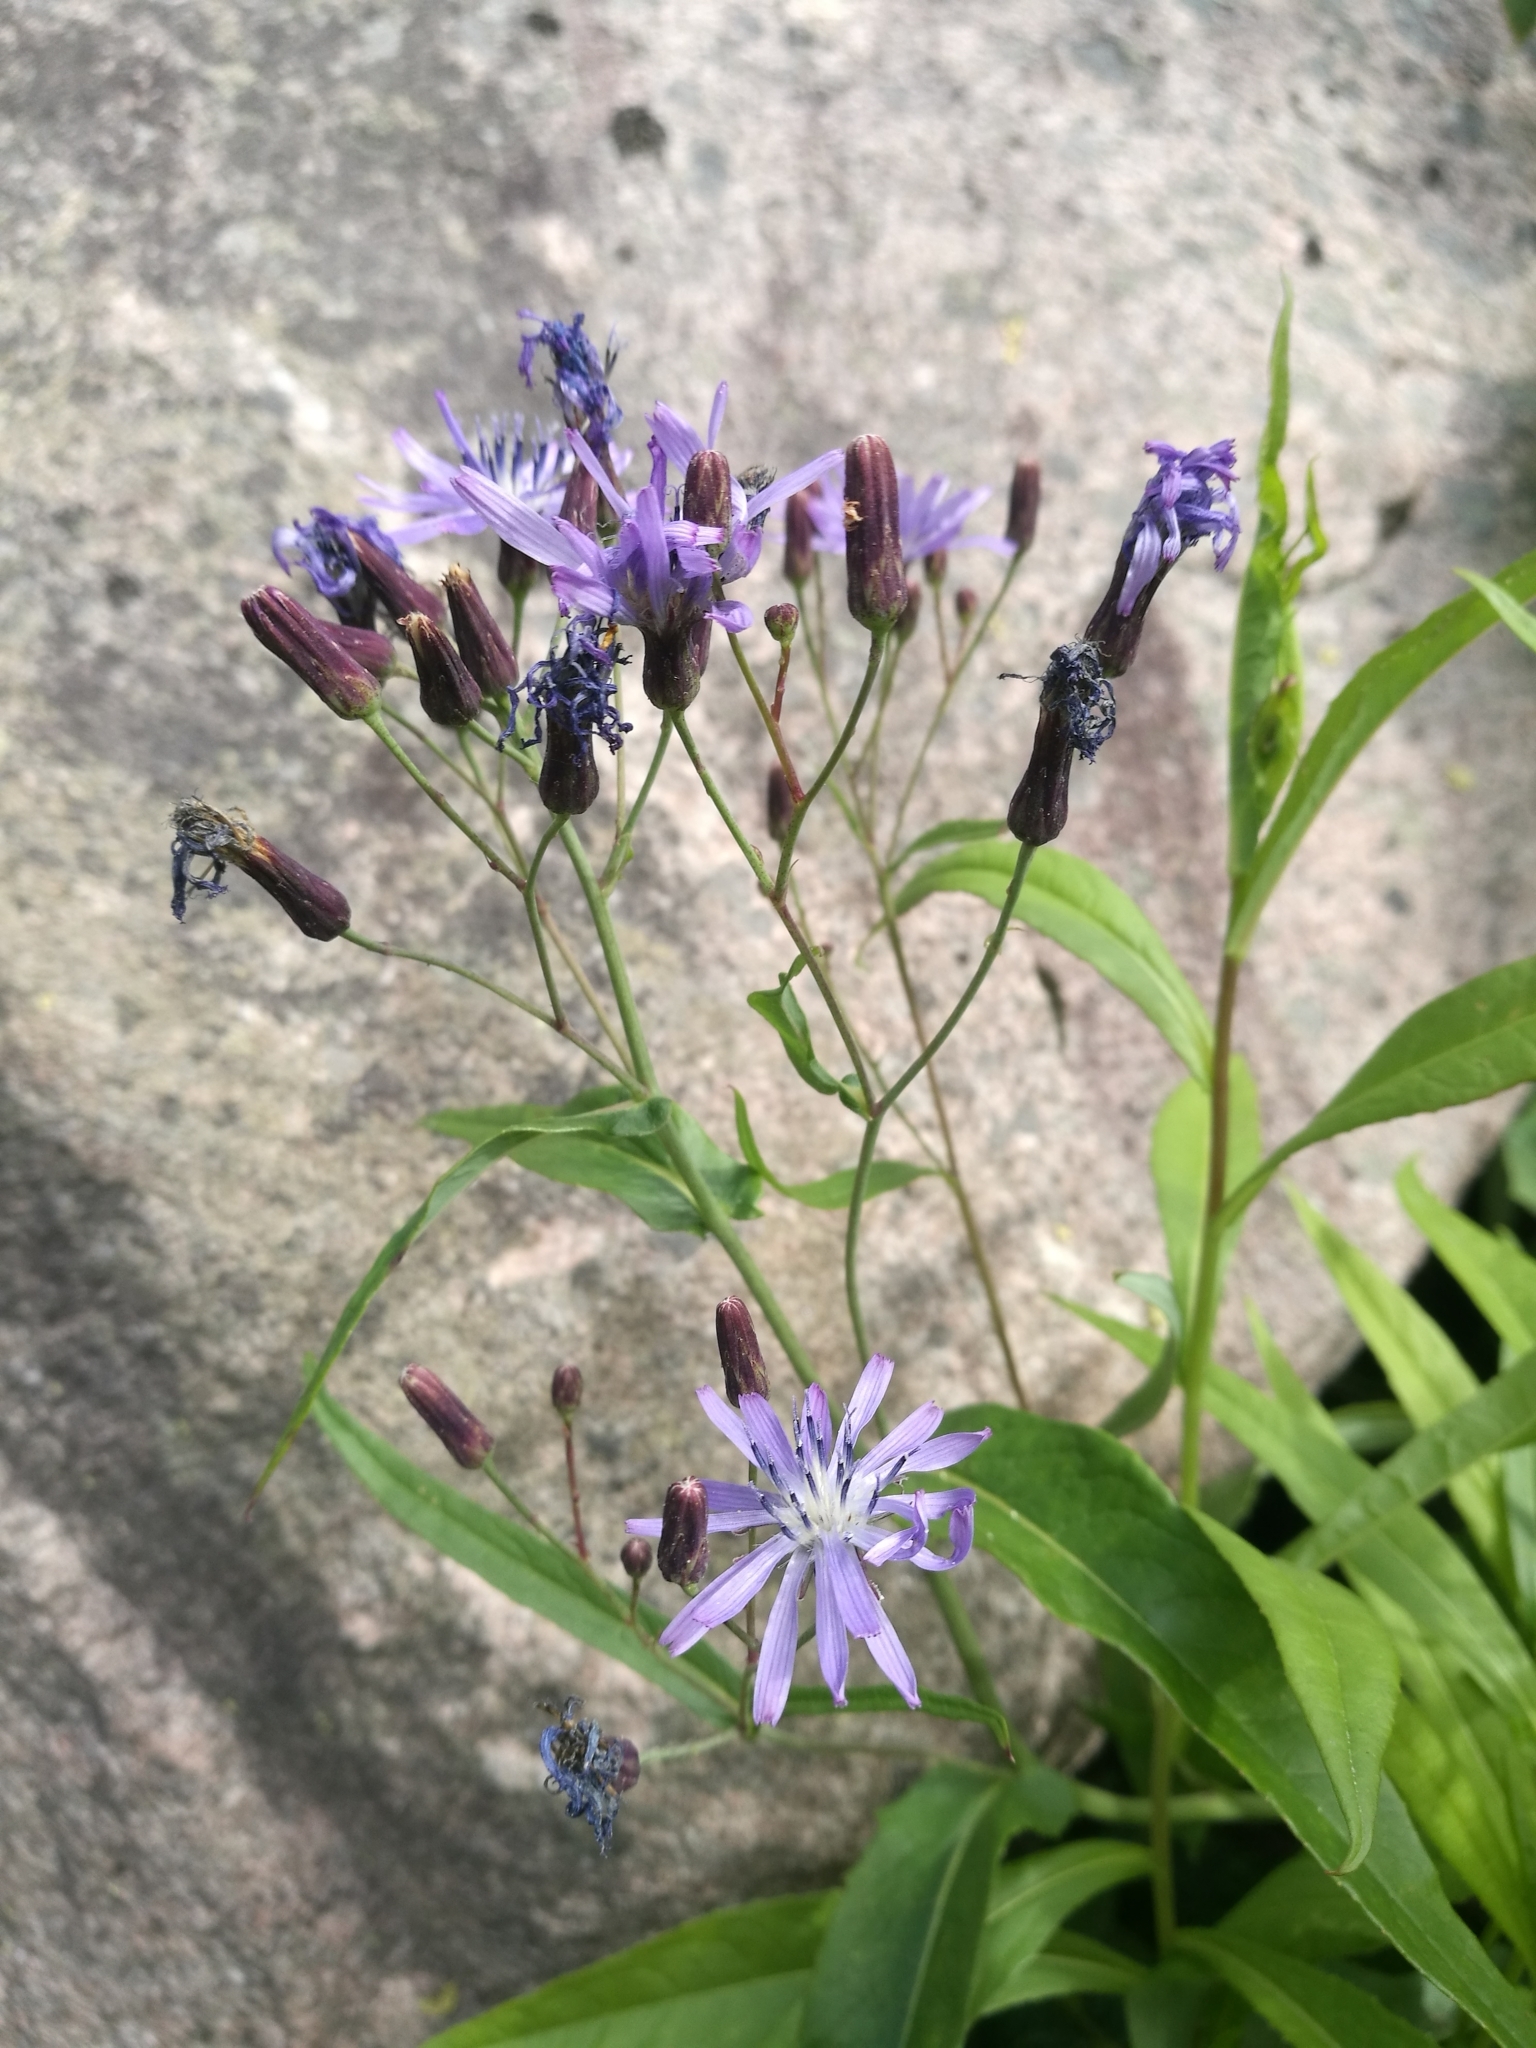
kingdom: Plantae
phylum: Tracheophyta
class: Magnoliopsida
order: Asterales
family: Asteraceae
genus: Lactuca
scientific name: Lactuca sibirica
